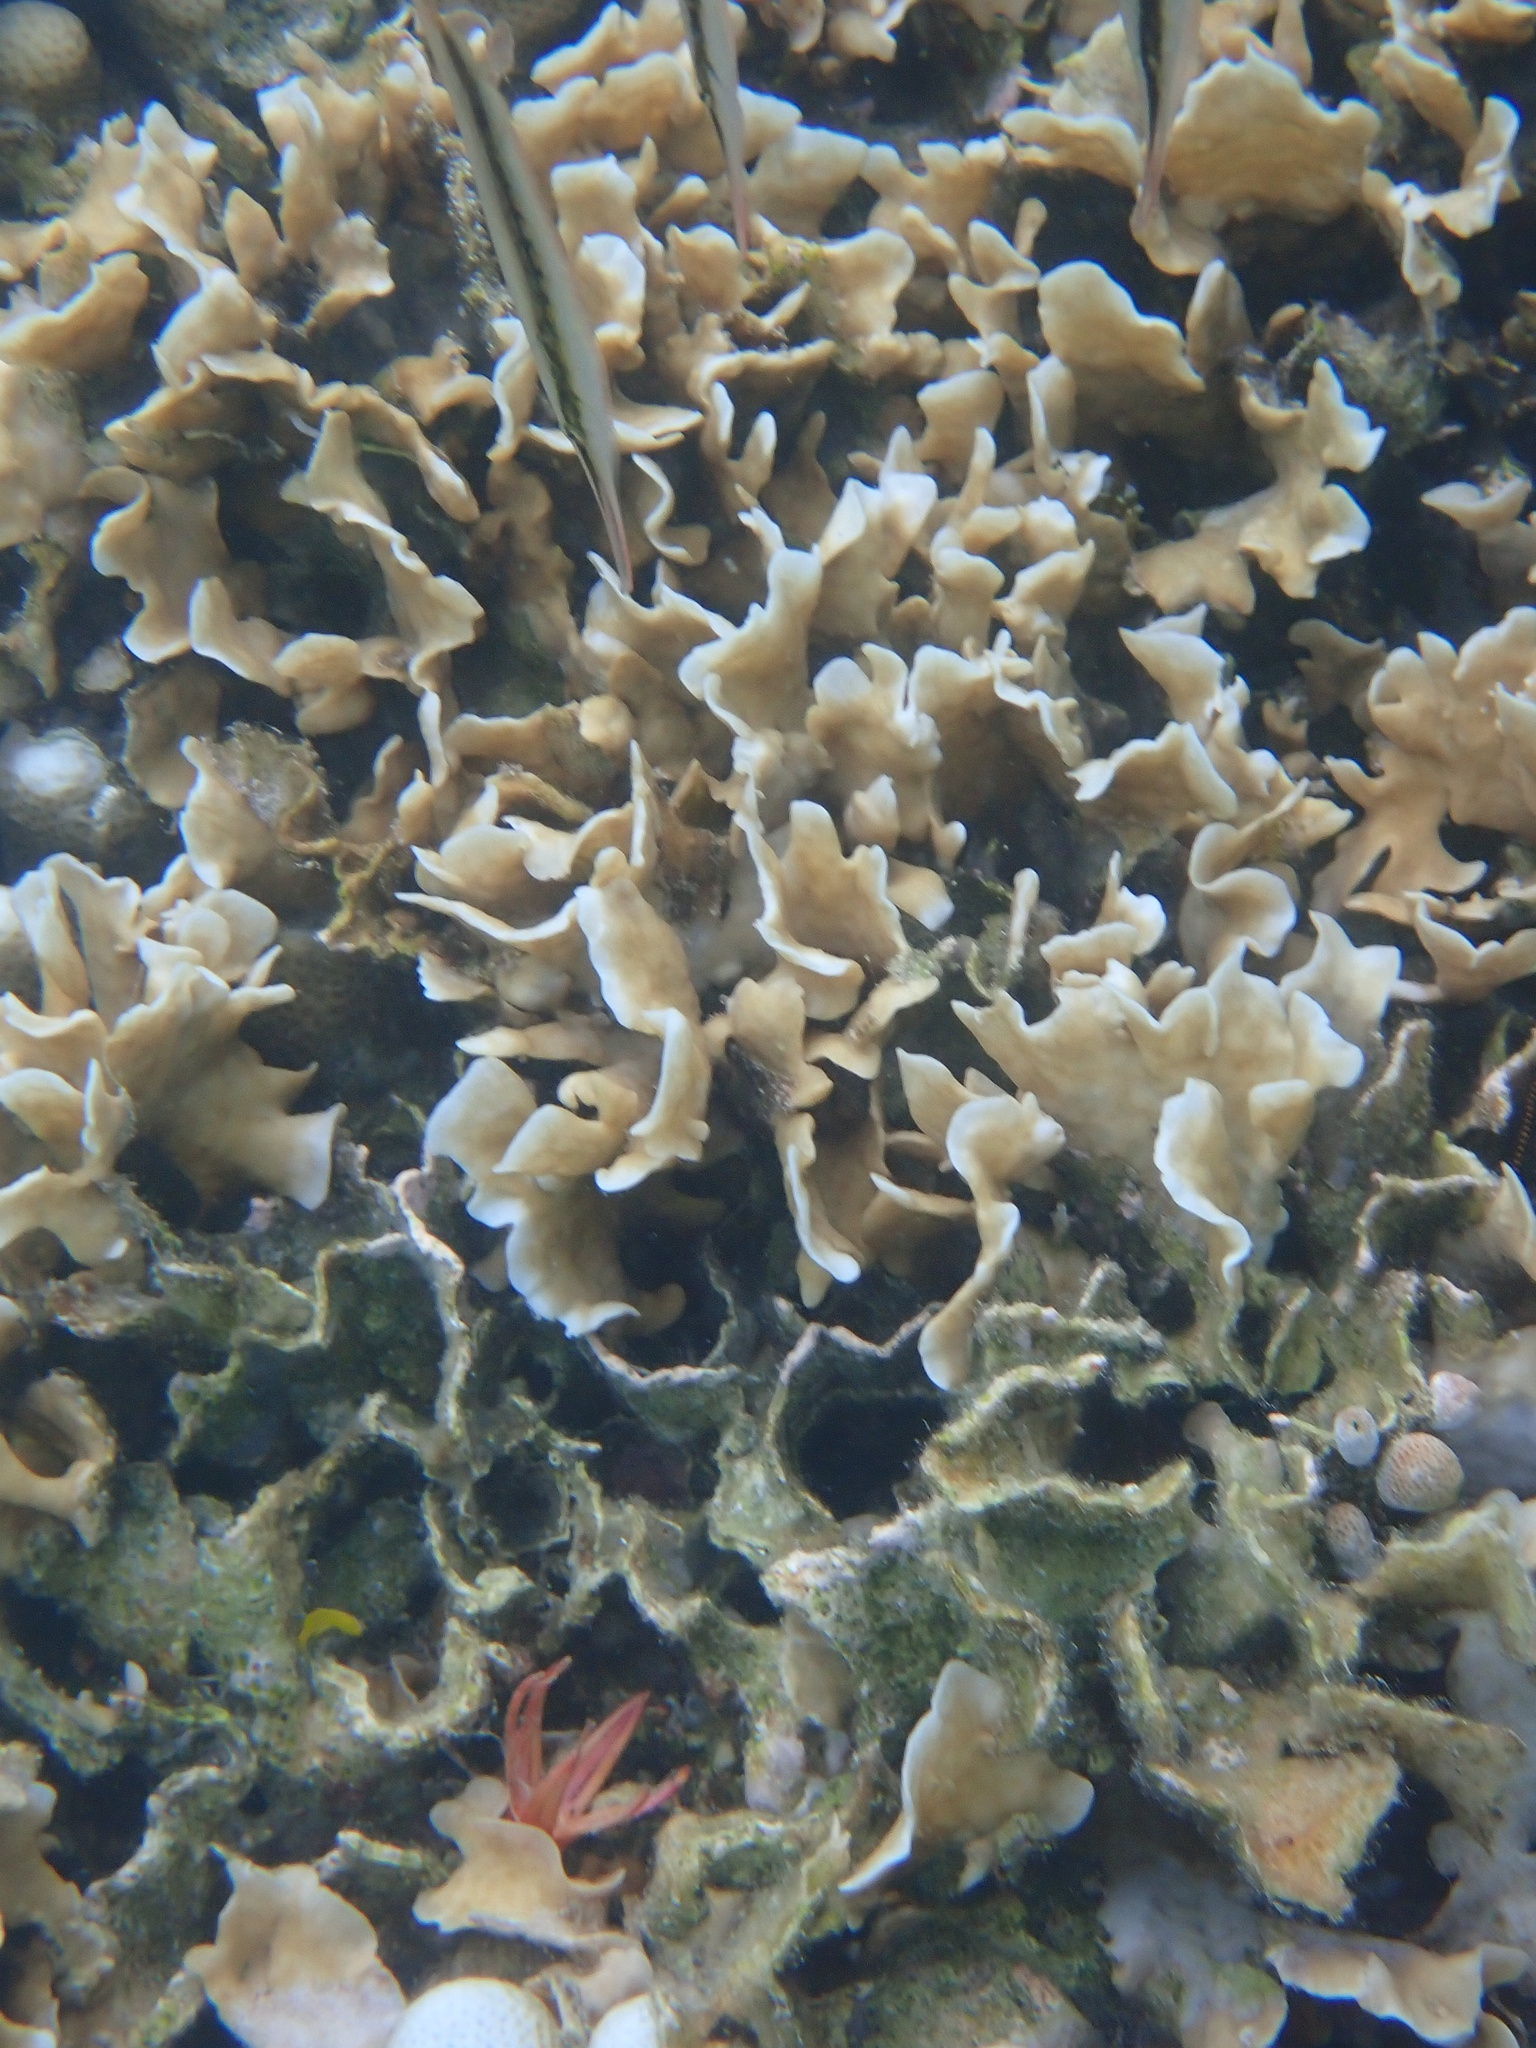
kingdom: Animalia
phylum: Cnidaria
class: Anthozoa
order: Scleractinia
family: Agariciidae
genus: Pavona
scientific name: Pavona cactus
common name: Leaf coral
